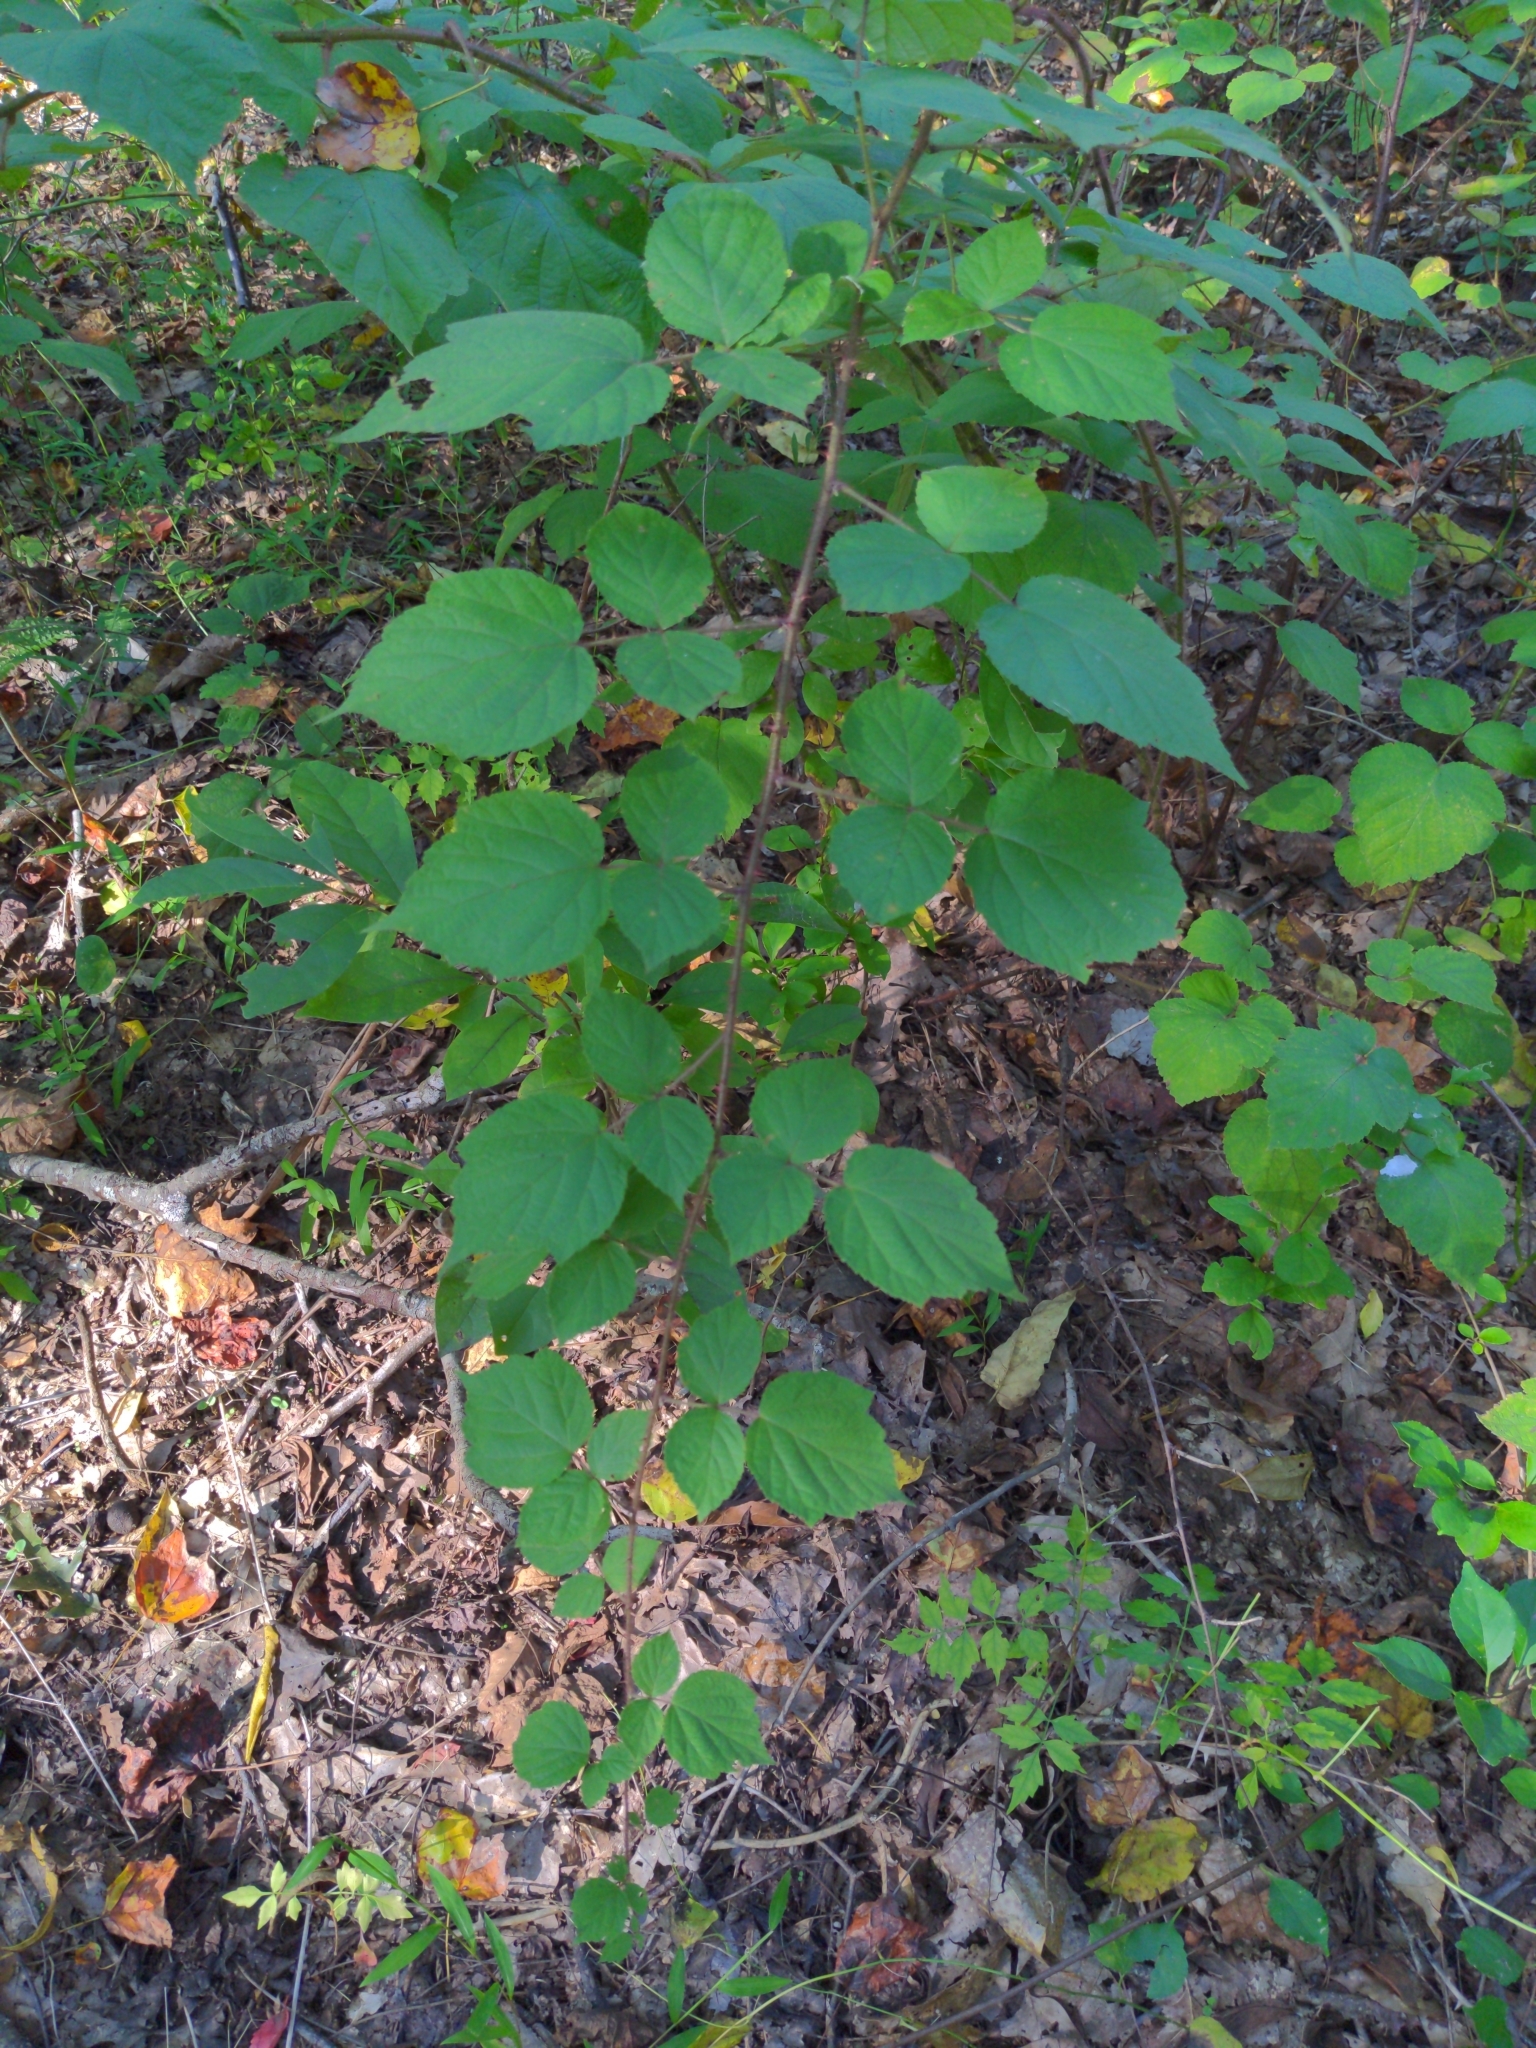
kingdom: Plantae
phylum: Tracheophyta
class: Magnoliopsida
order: Rosales
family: Rosaceae
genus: Rubus
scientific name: Rubus phoenicolasius
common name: Japanese wineberry
